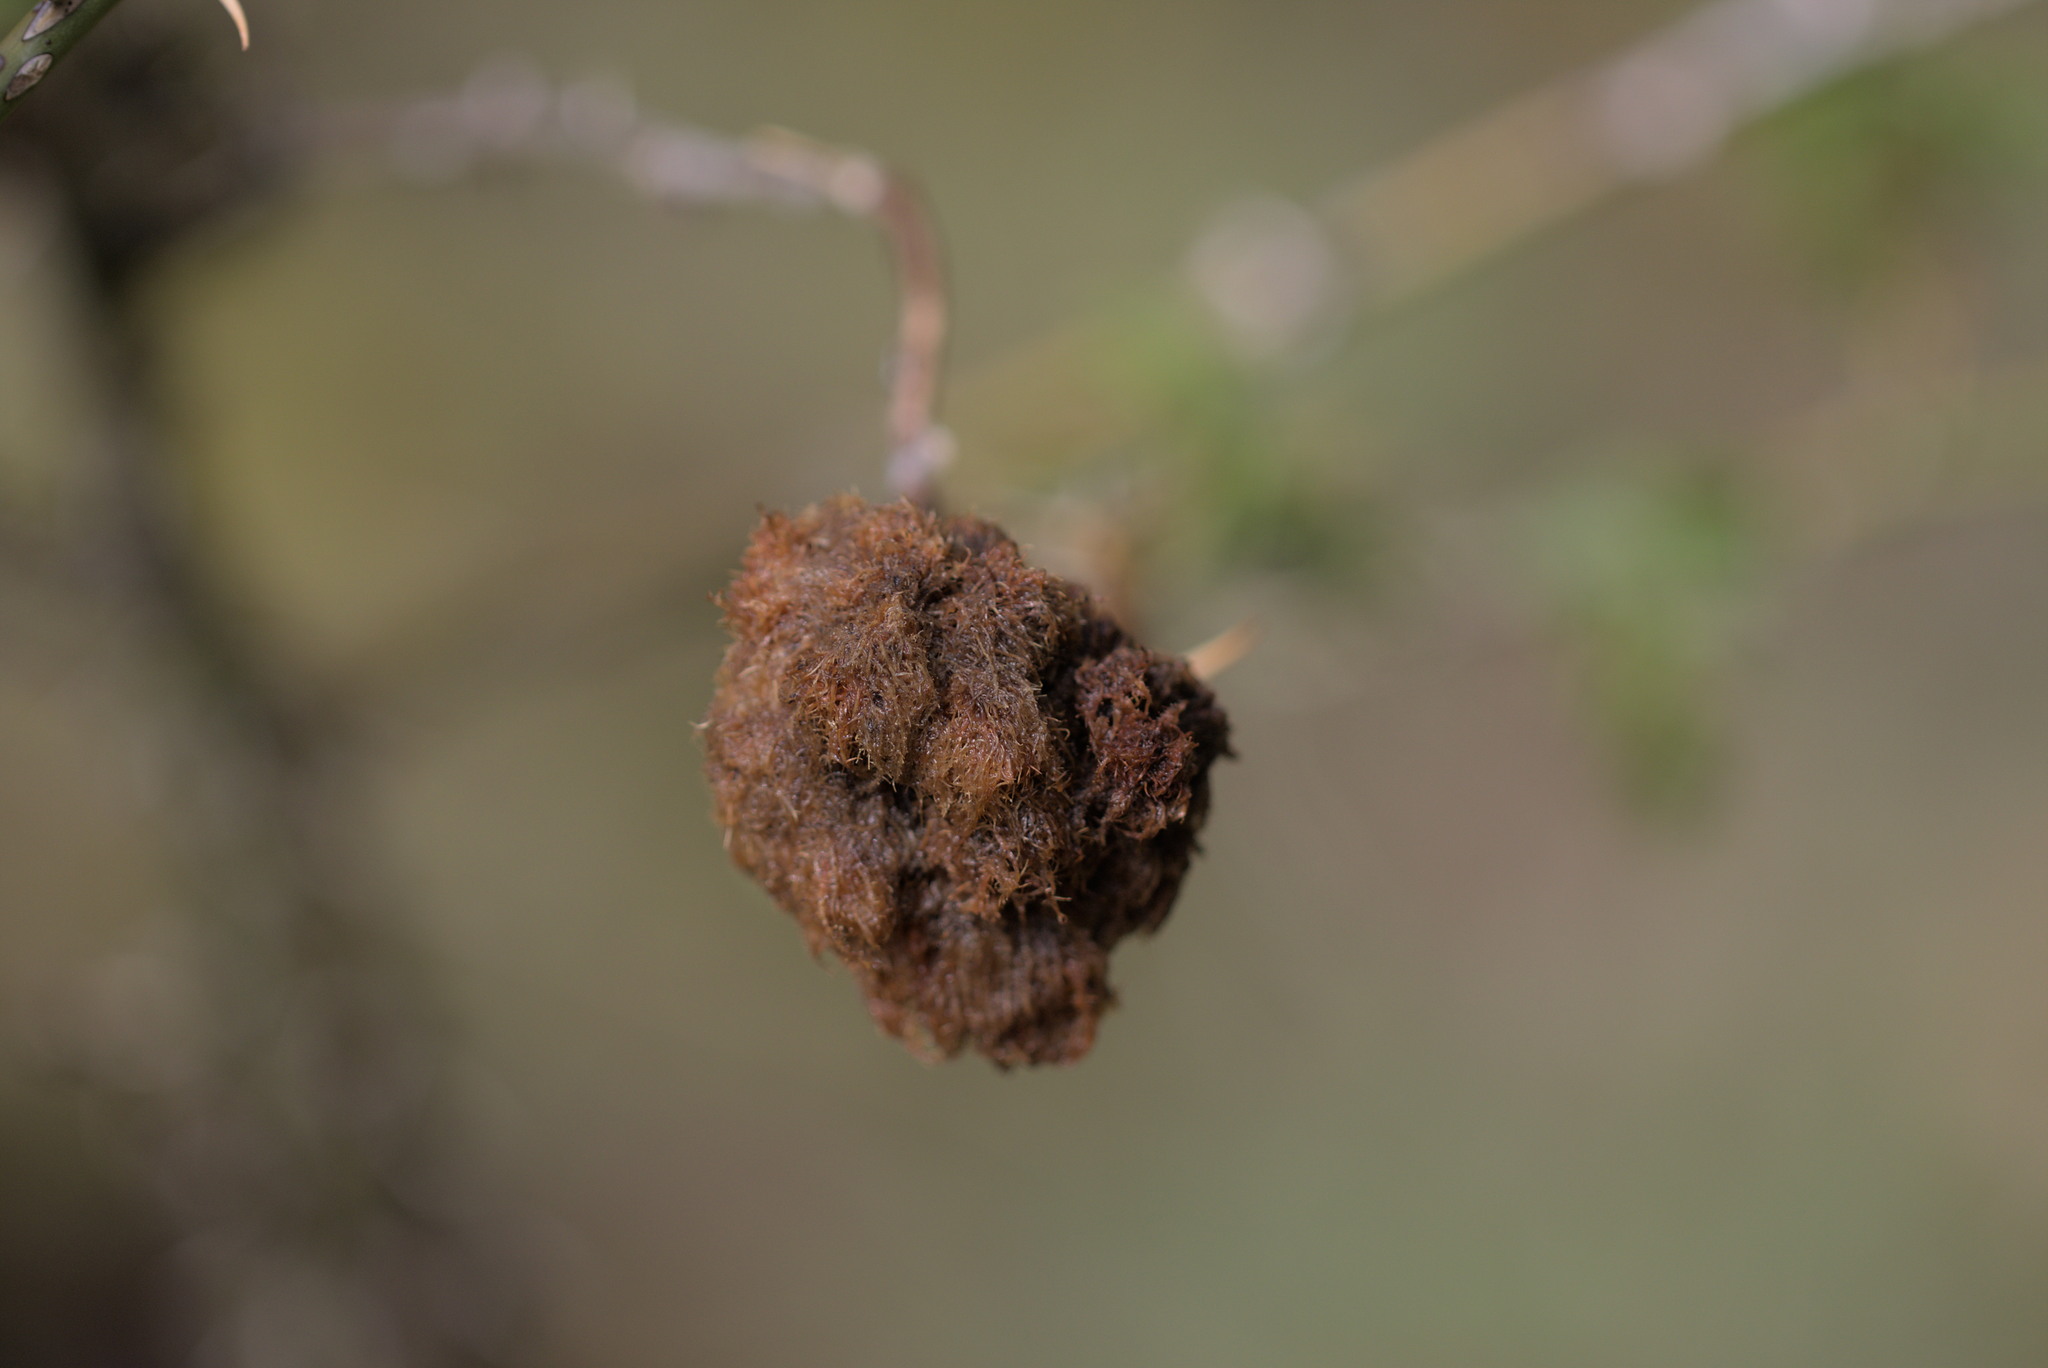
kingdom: Animalia
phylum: Arthropoda
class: Insecta
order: Hymenoptera
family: Cynipidae
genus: Diplolepis
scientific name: Diplolepis rosae
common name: Bedeguar gall
